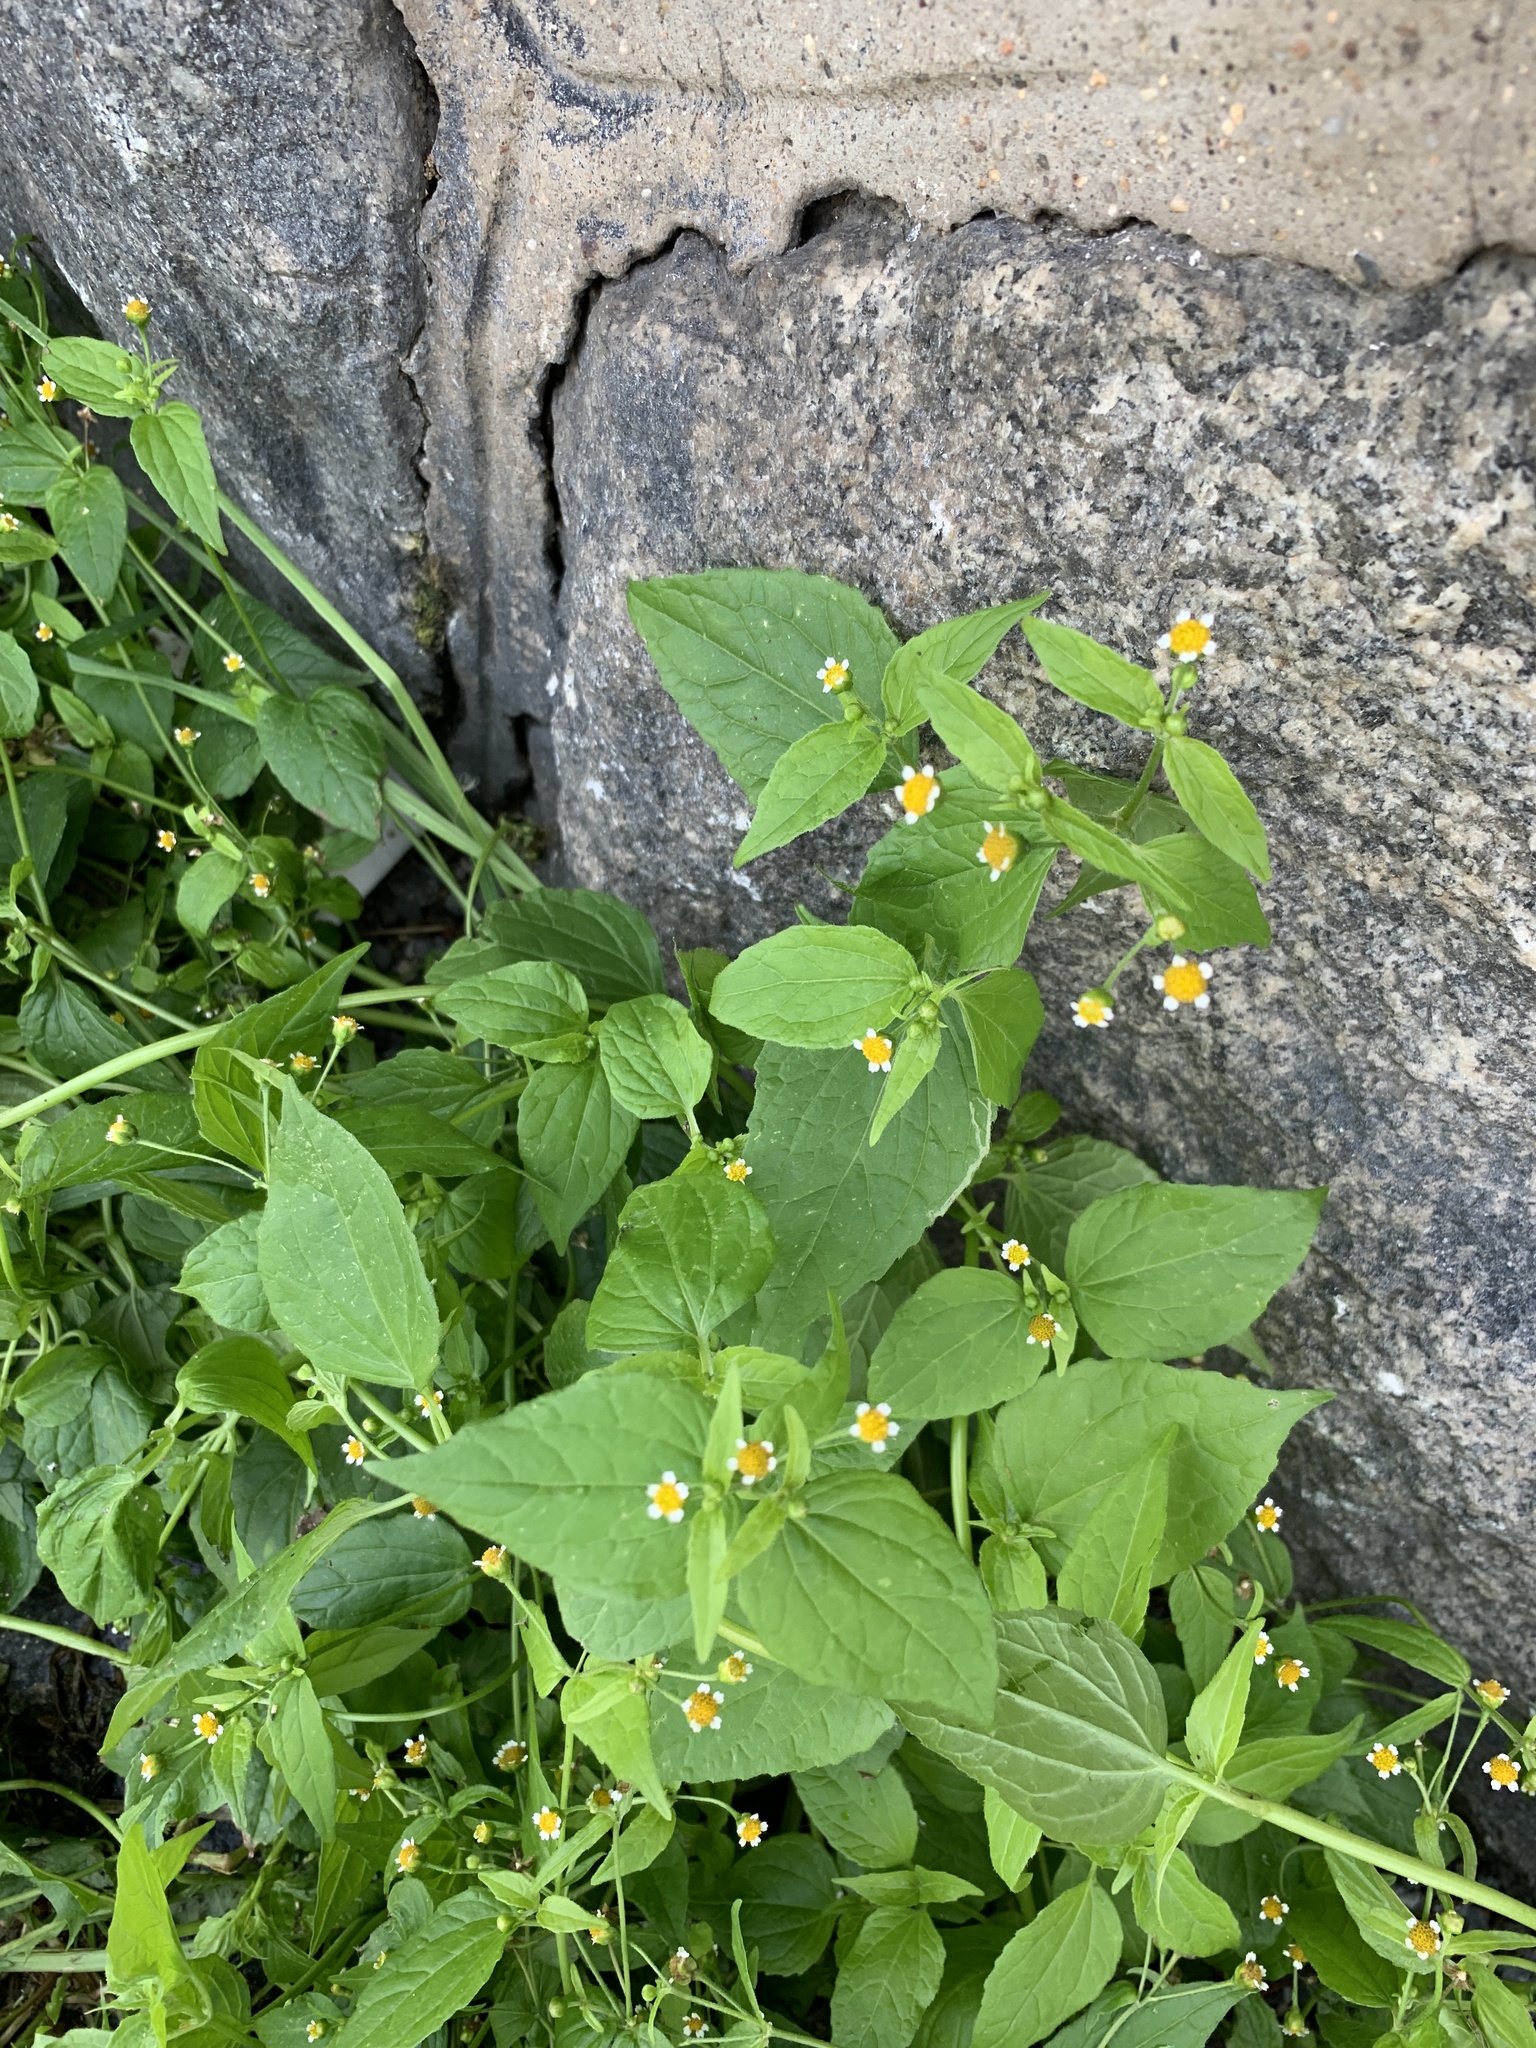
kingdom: Plantae
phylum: Tracheophyta
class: Magnoliopsida
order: Asterales
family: Asteraceae
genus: Galinsoga
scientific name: Galinsoga parviflora
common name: Gallant soldier
